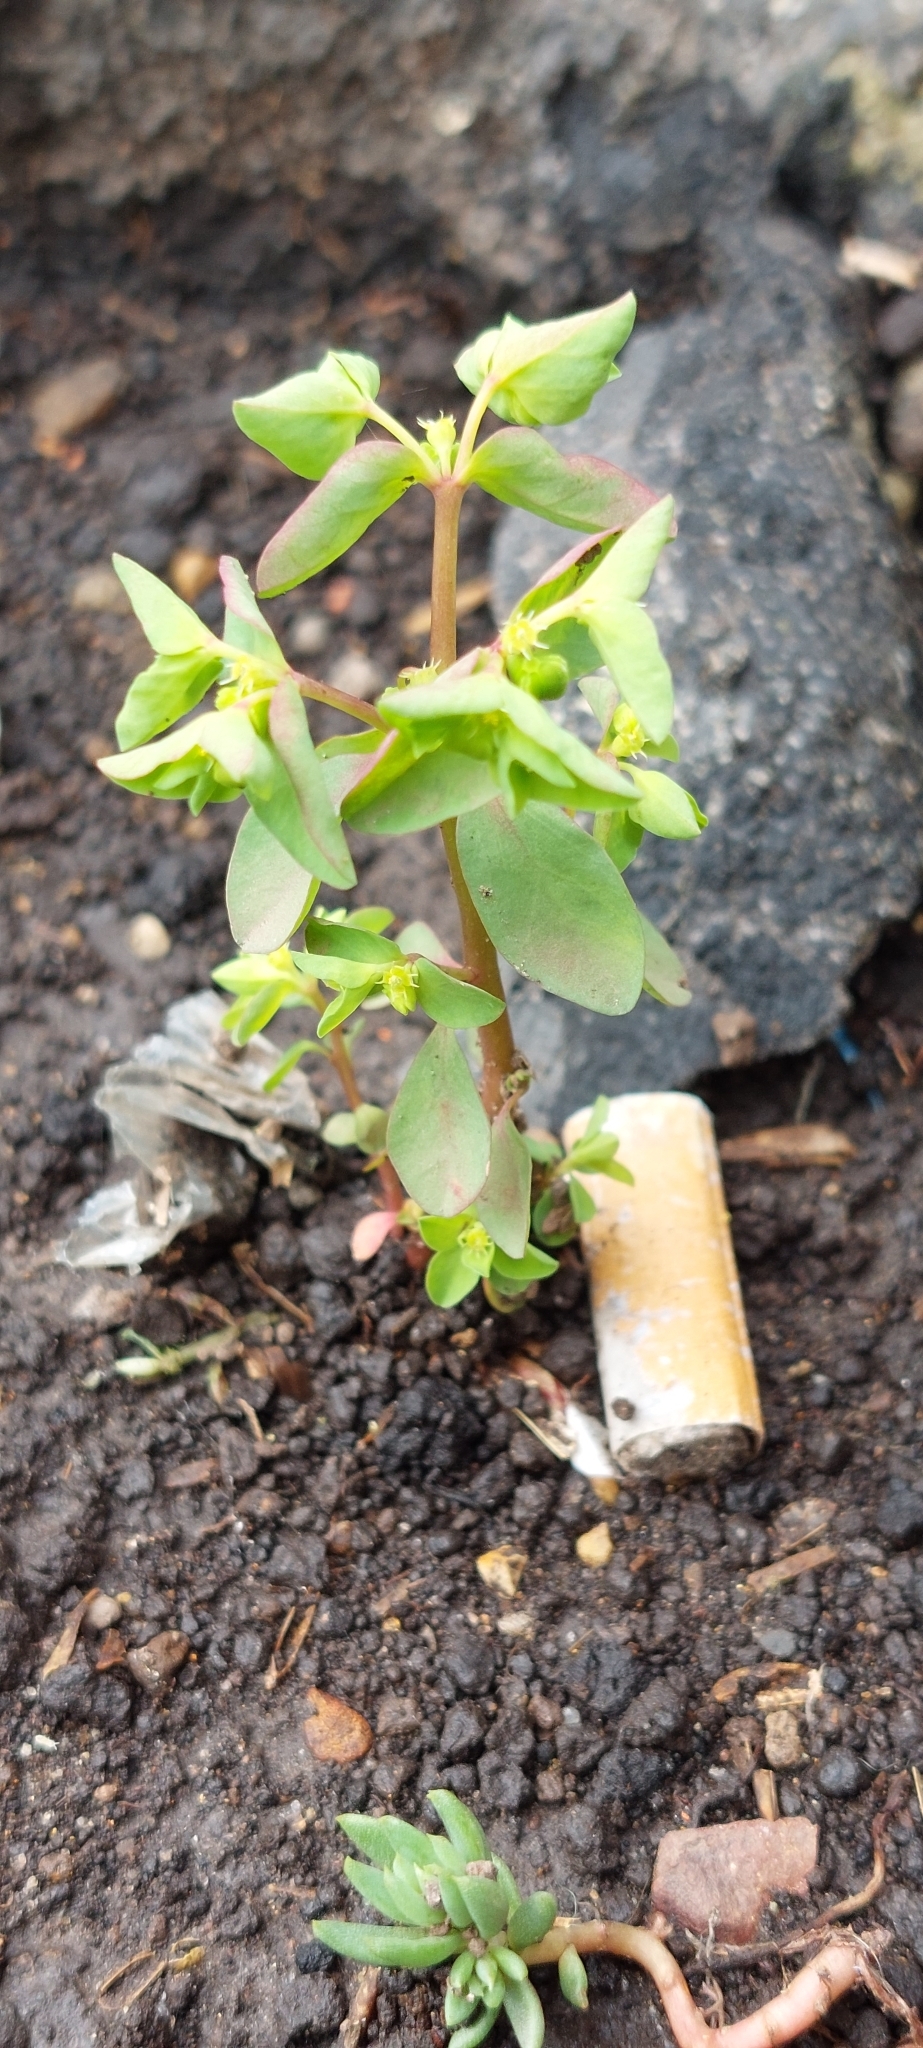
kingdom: Plantae
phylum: Tracheophyta
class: Magnoliopsida
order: Malpighiales
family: Euphorbiaceae
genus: Euphorbia
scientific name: Euphorbia peplus
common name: Petty spurge
